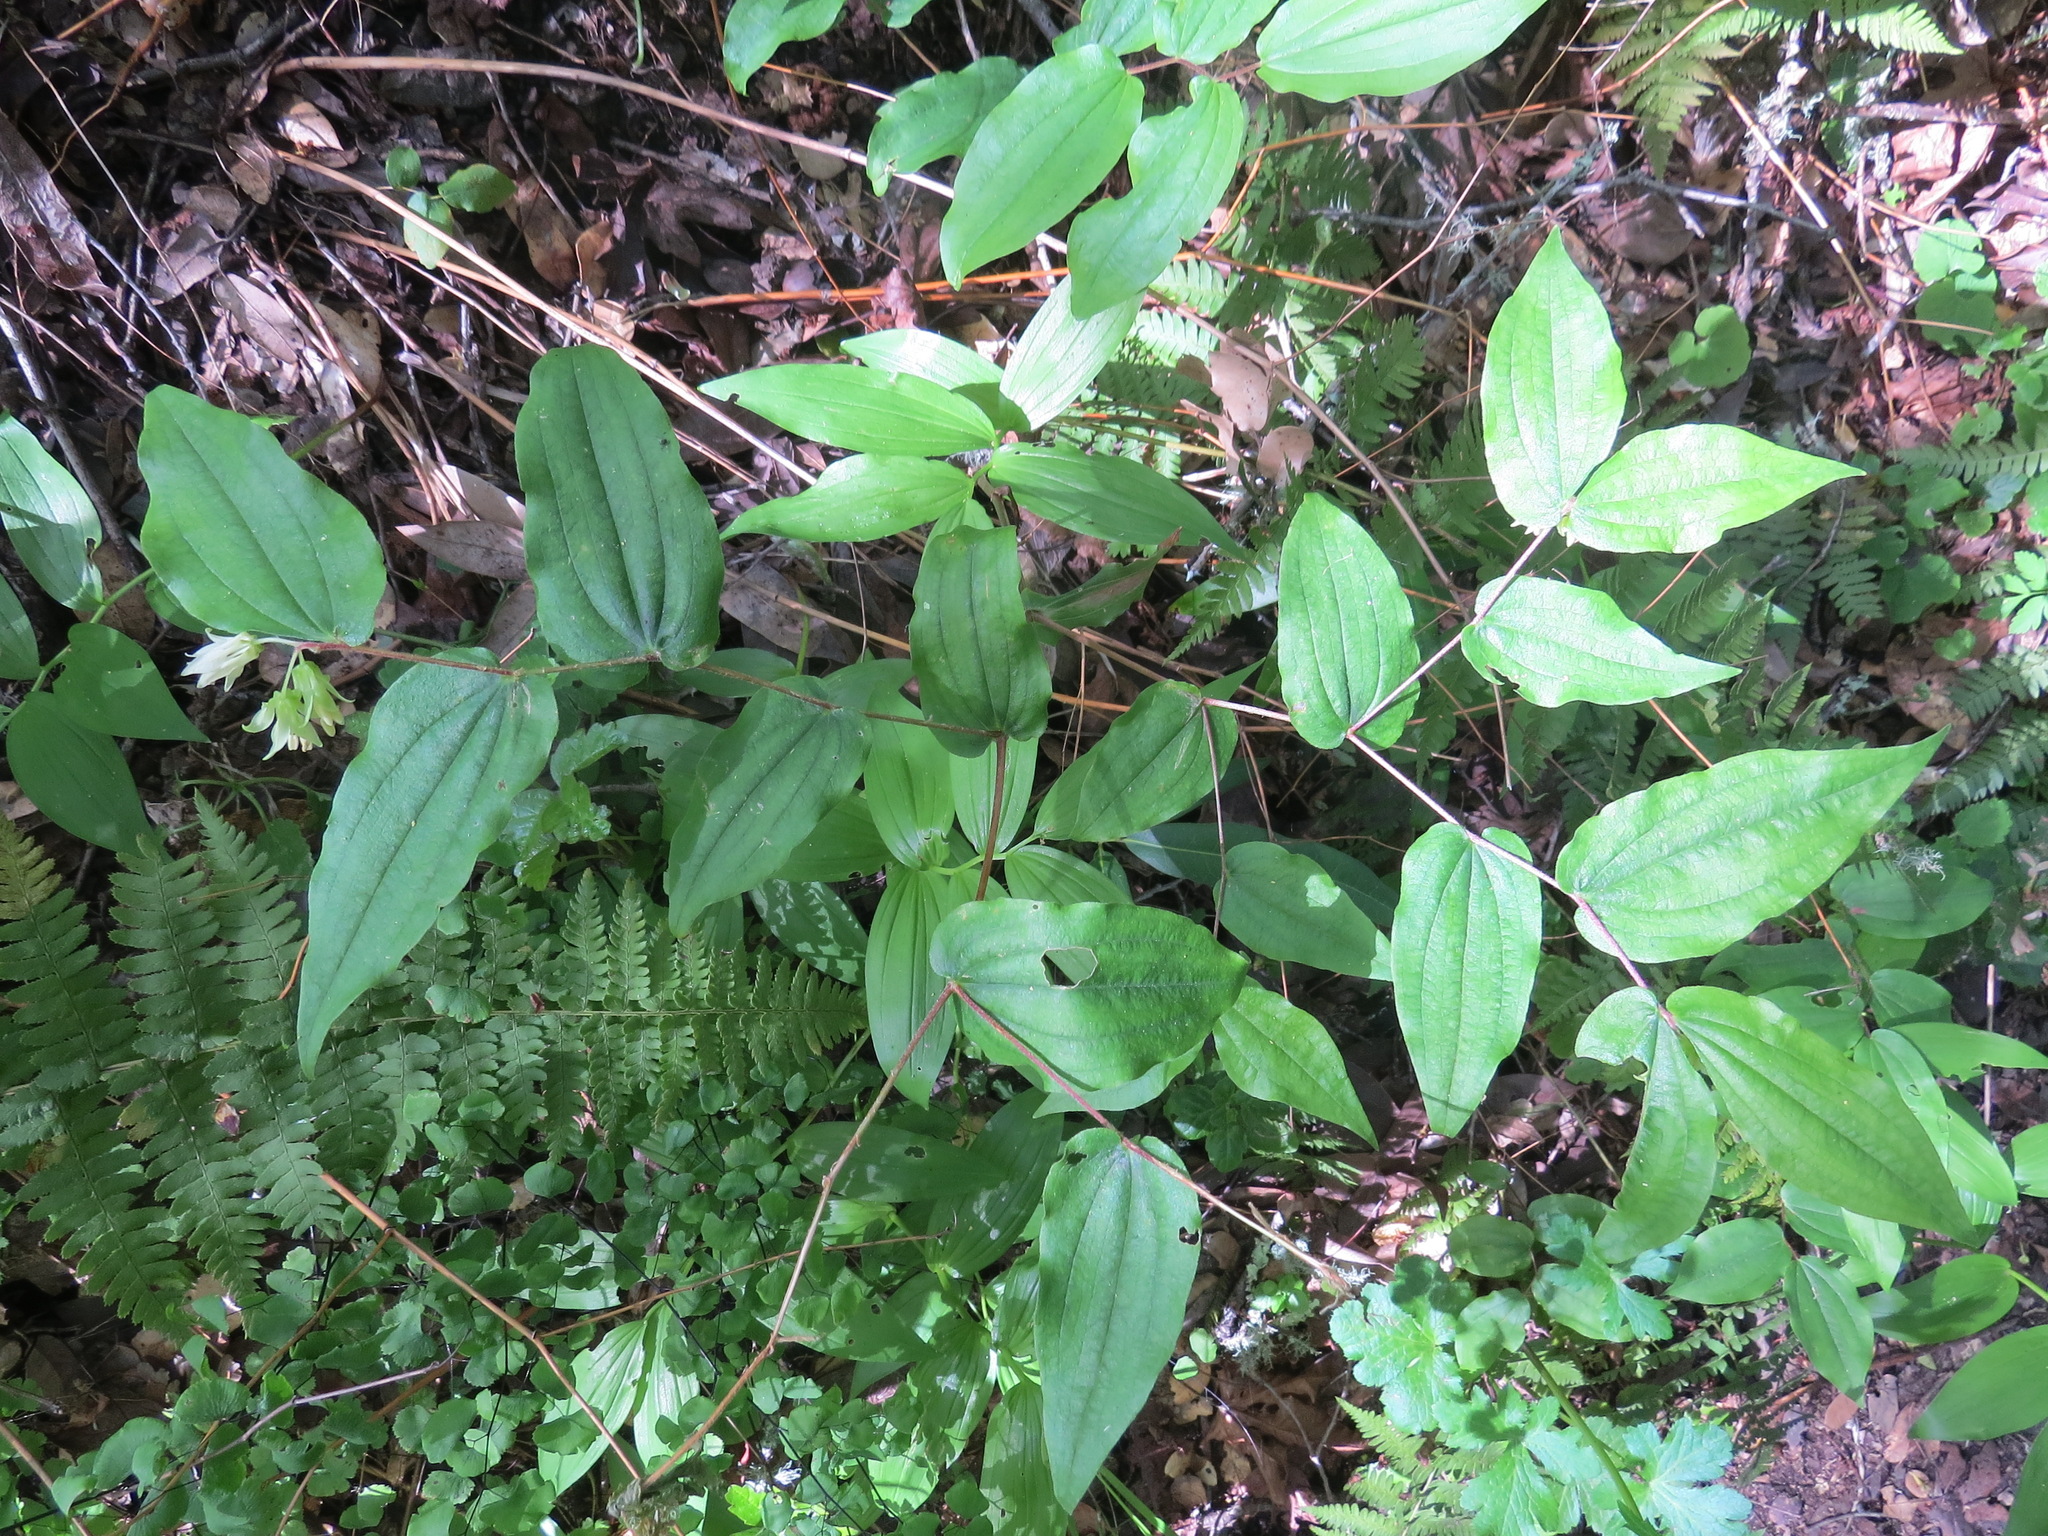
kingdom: Plantae
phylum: Tracheophyta
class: Liliopsida
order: Liliales
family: Liliaceae
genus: Prosartes
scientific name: Prosartes hookeri
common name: Fairy-bells
